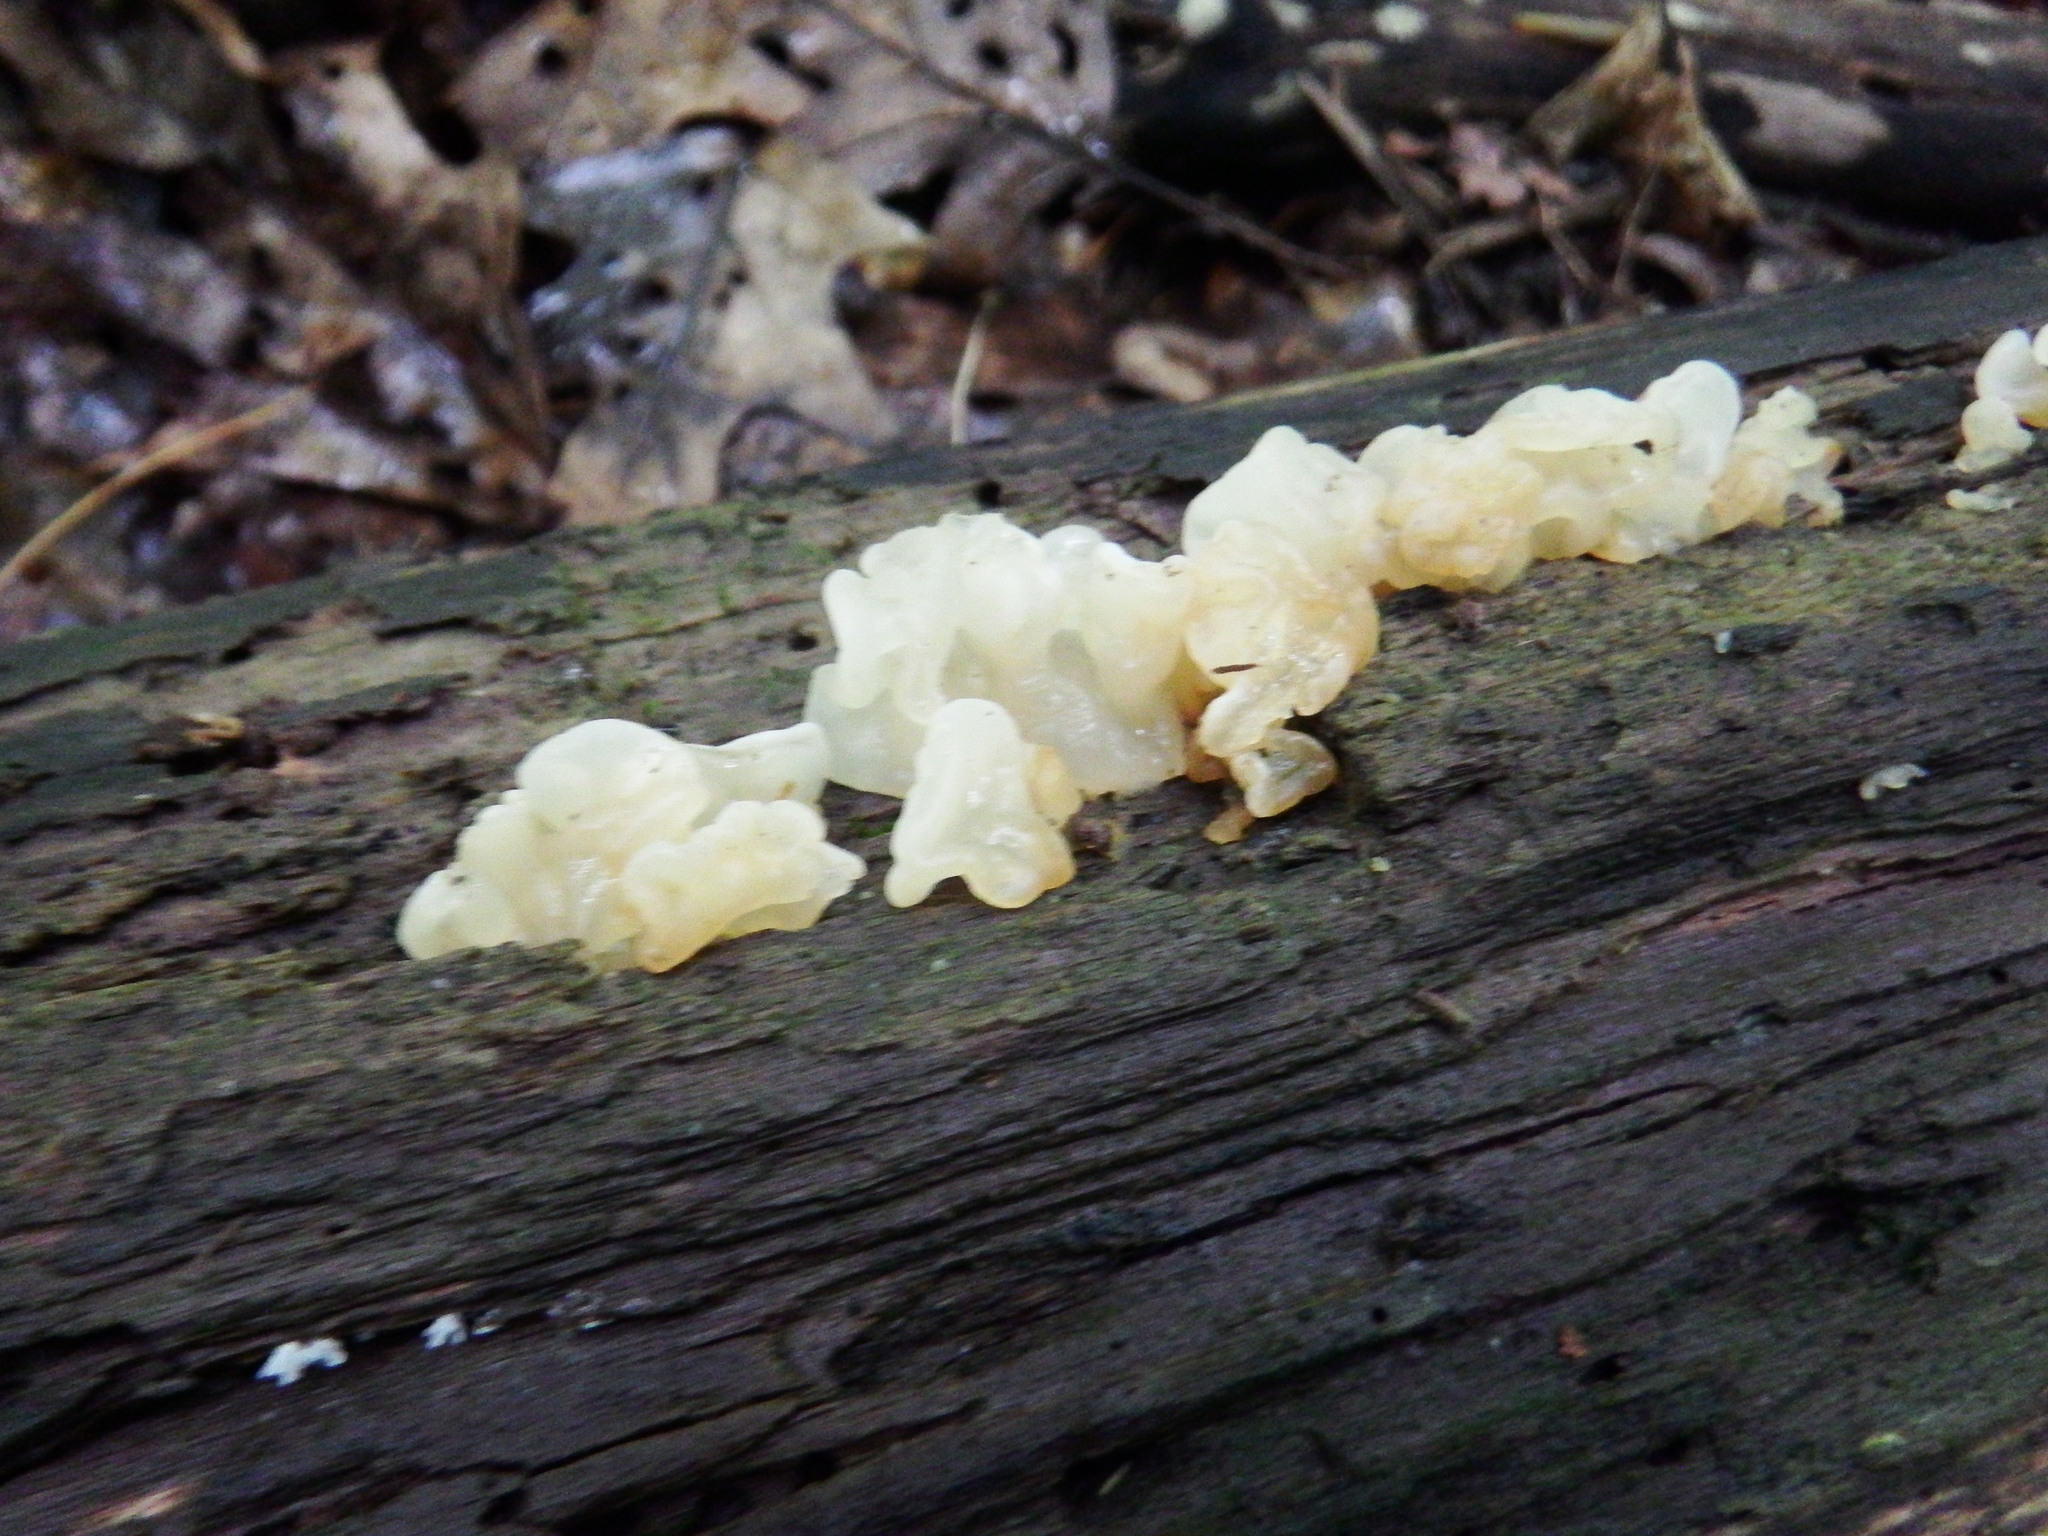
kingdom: Fungi
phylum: Basidiomycota
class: Agaricomycetes
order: Auriculariales
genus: Ductifera
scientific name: Ductifera pululahuana
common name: White jelly fungus
